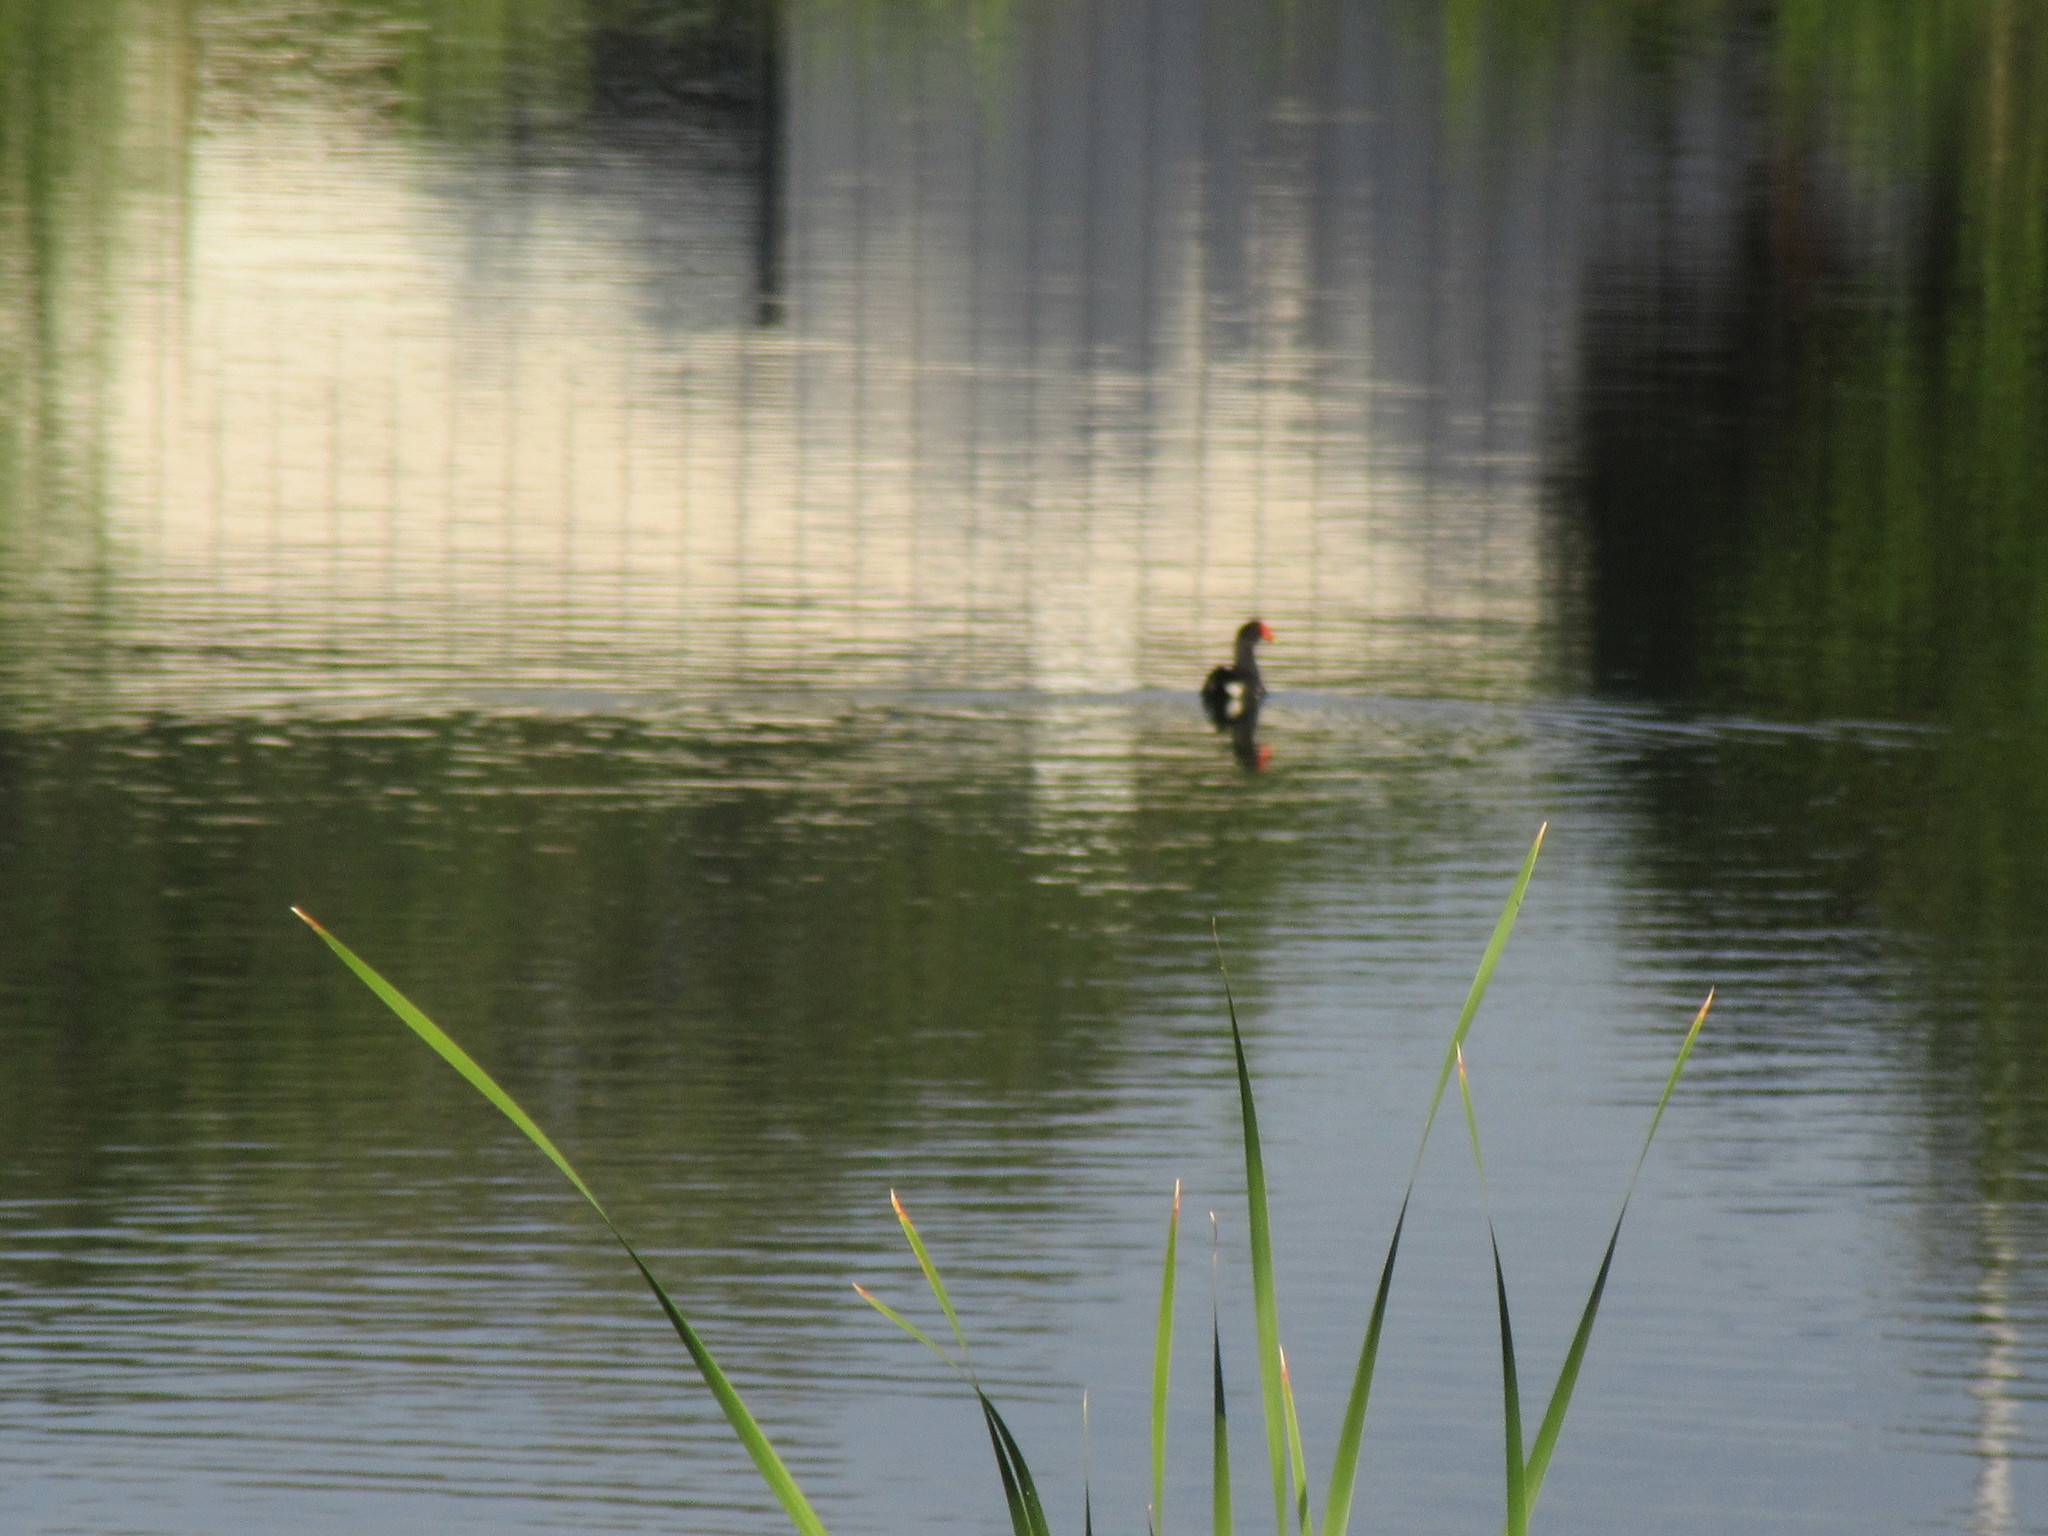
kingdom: Animalia
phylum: Chordata
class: Aves
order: Gruiformes
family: Rallidae
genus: Gallinula
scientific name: Gallinula chloropus
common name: Common moorhen
